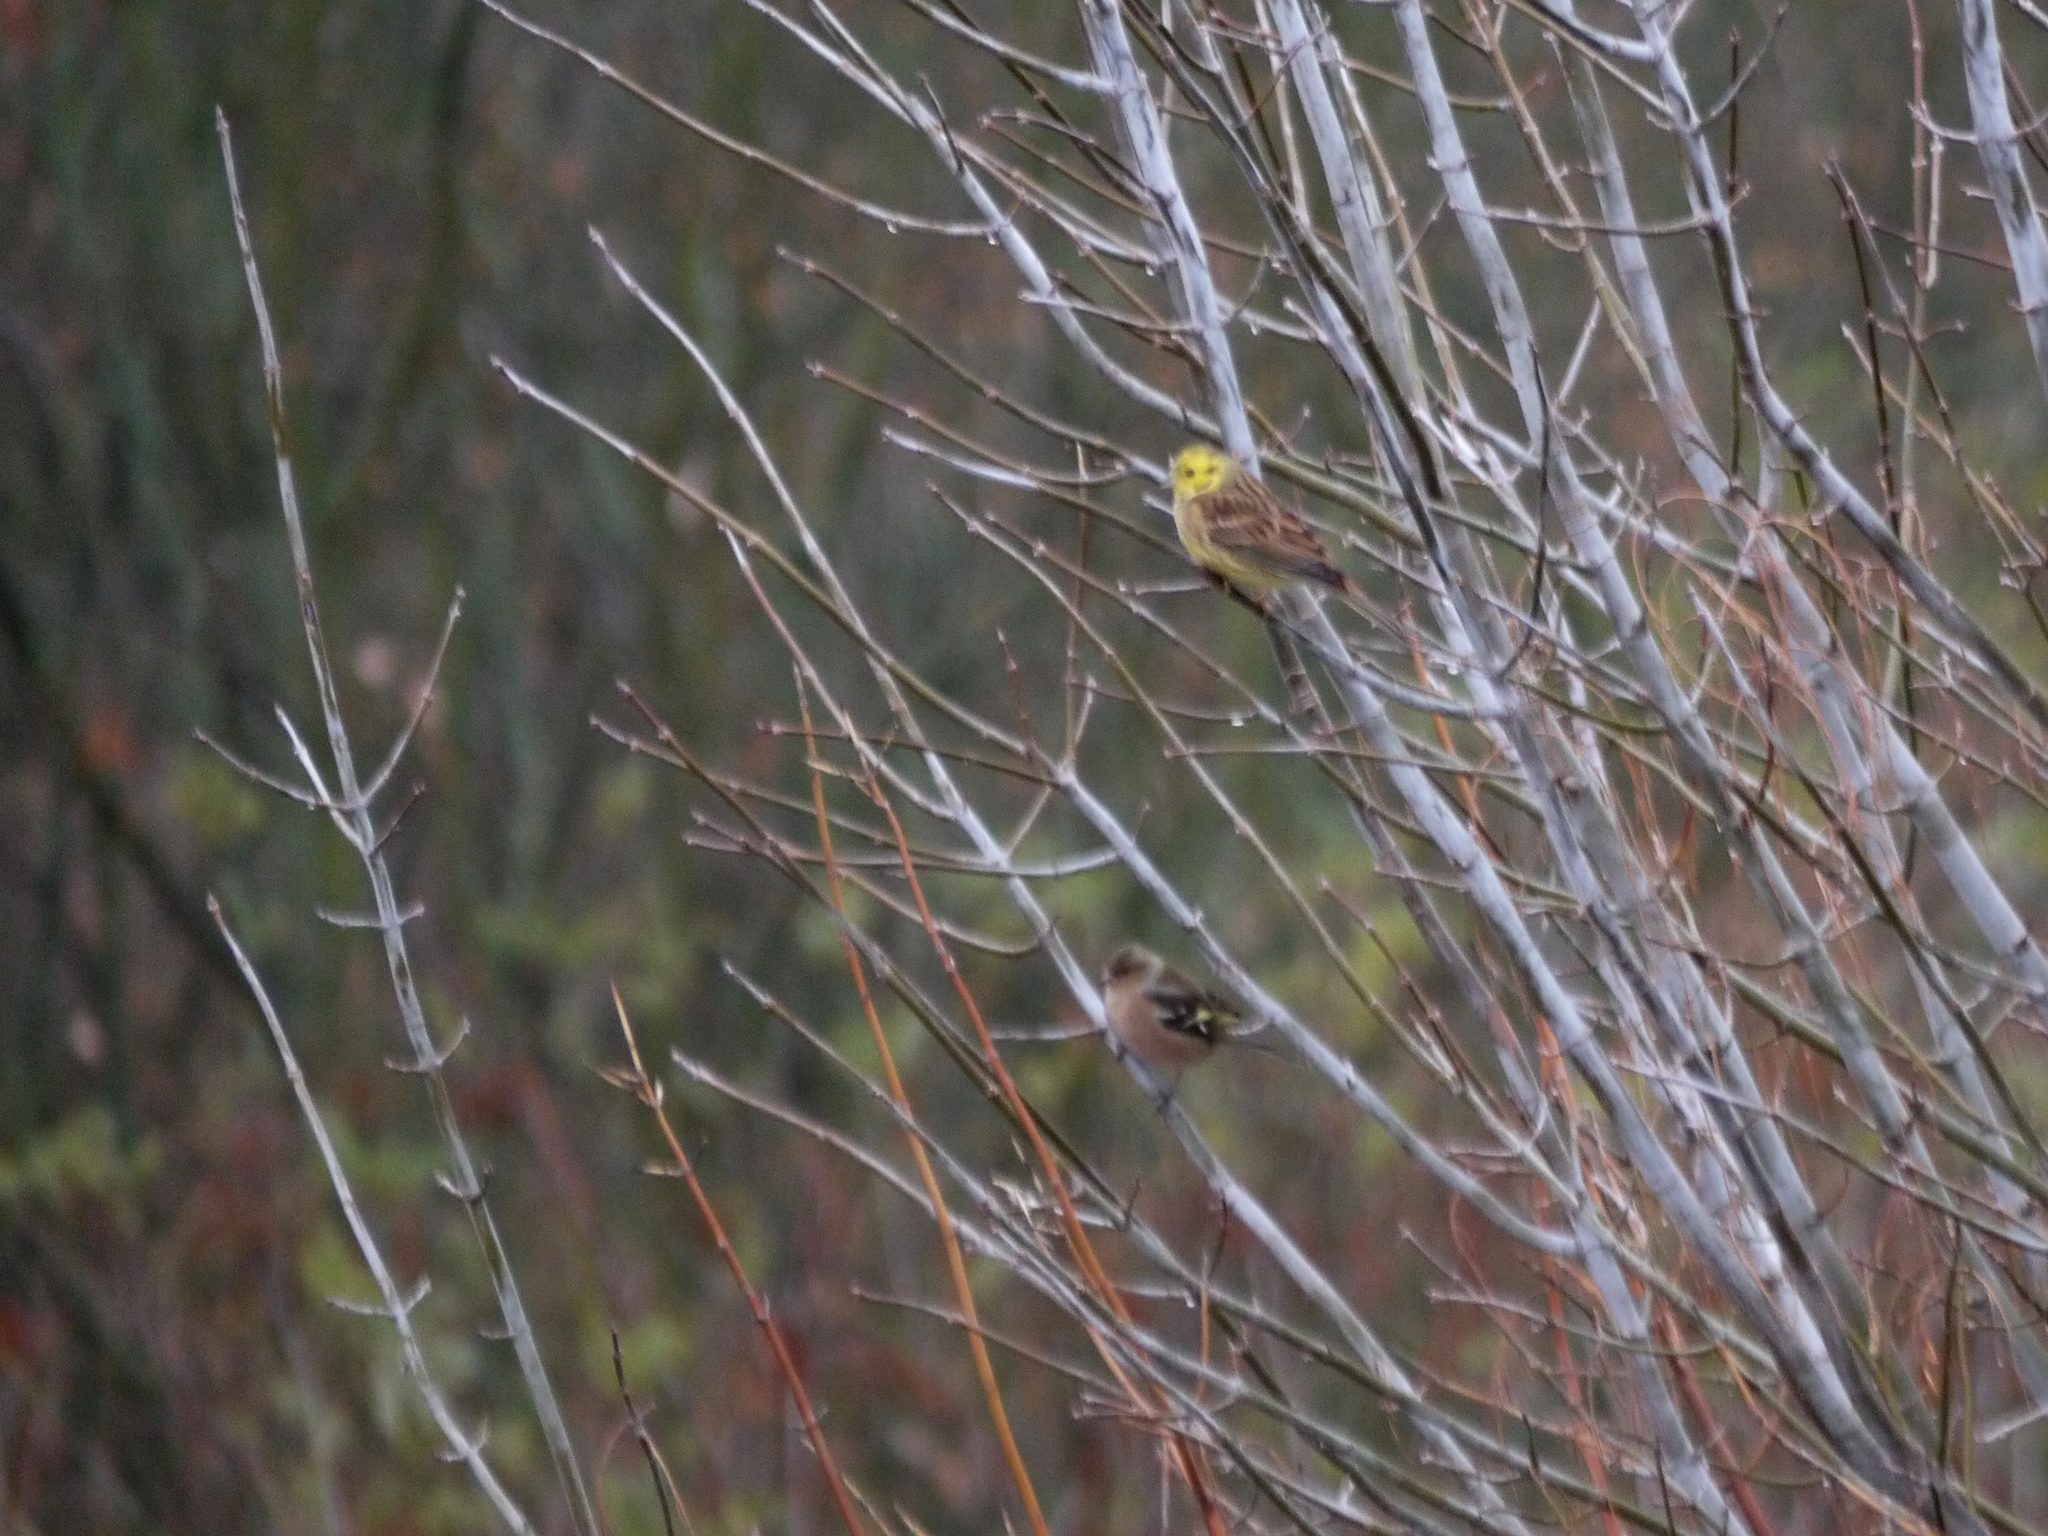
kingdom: Animalia
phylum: Chordata
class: Aves
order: Passeriformes
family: Emberizidae
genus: Emberiza
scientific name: Emberiza citrinella
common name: Yellowhammer
